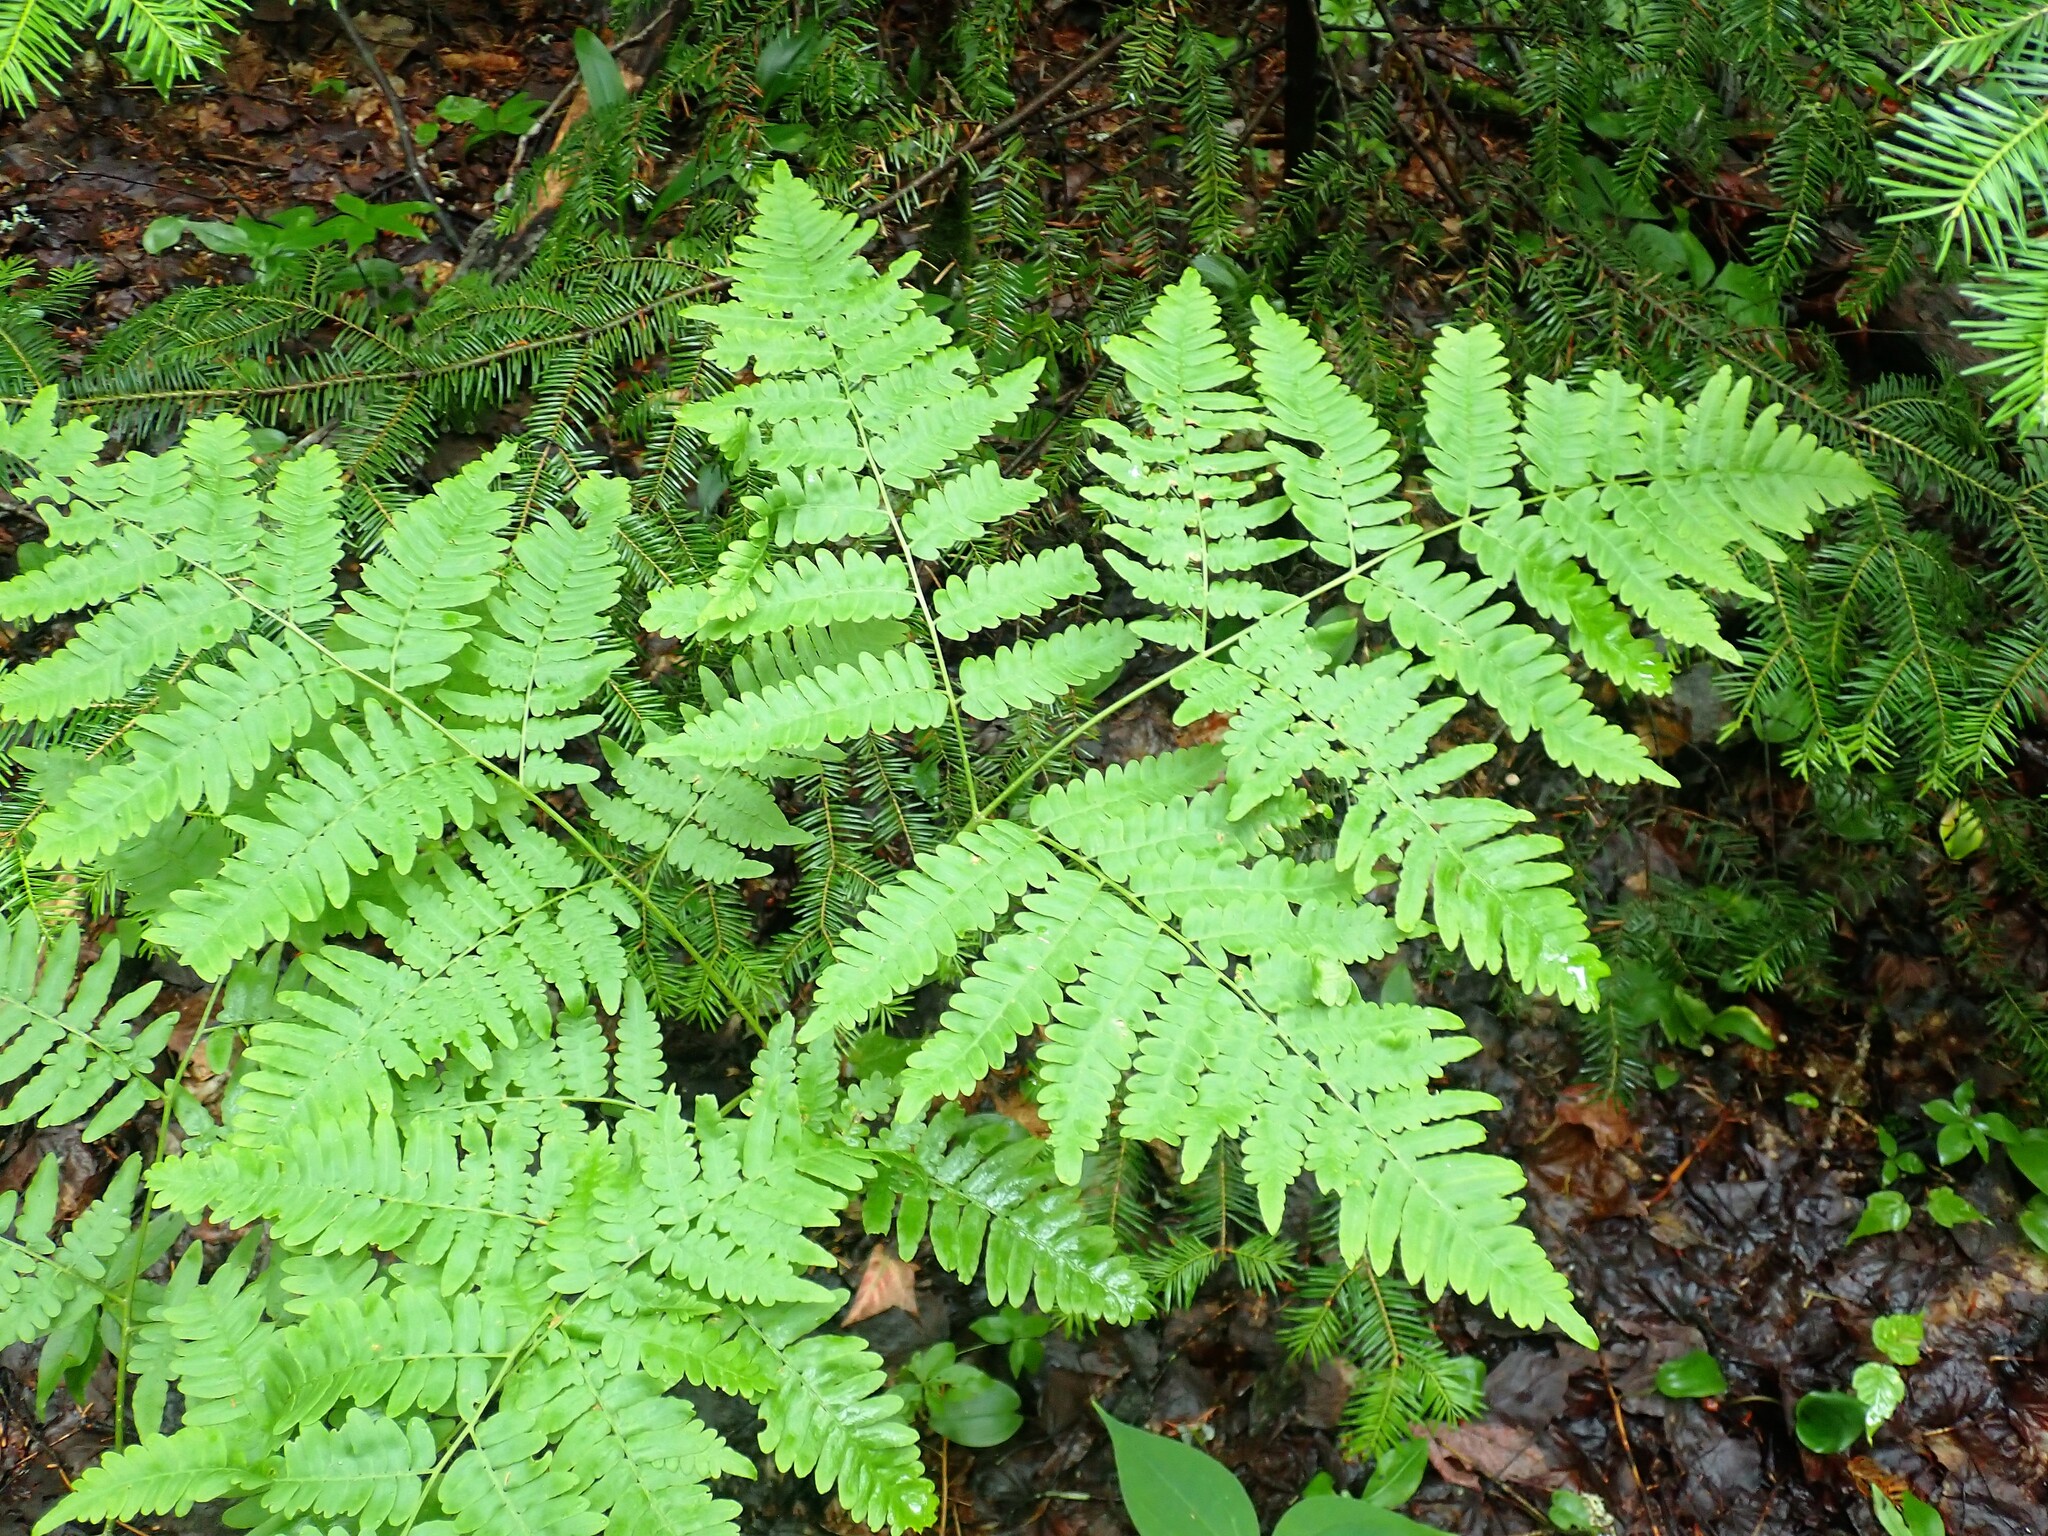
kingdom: Plantae
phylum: Tracheophyta
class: Polypodiopsida
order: Polypodiales
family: Dennstaedtiaceae
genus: Pteridium
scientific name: Pteridium aquilinum
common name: Bracken
